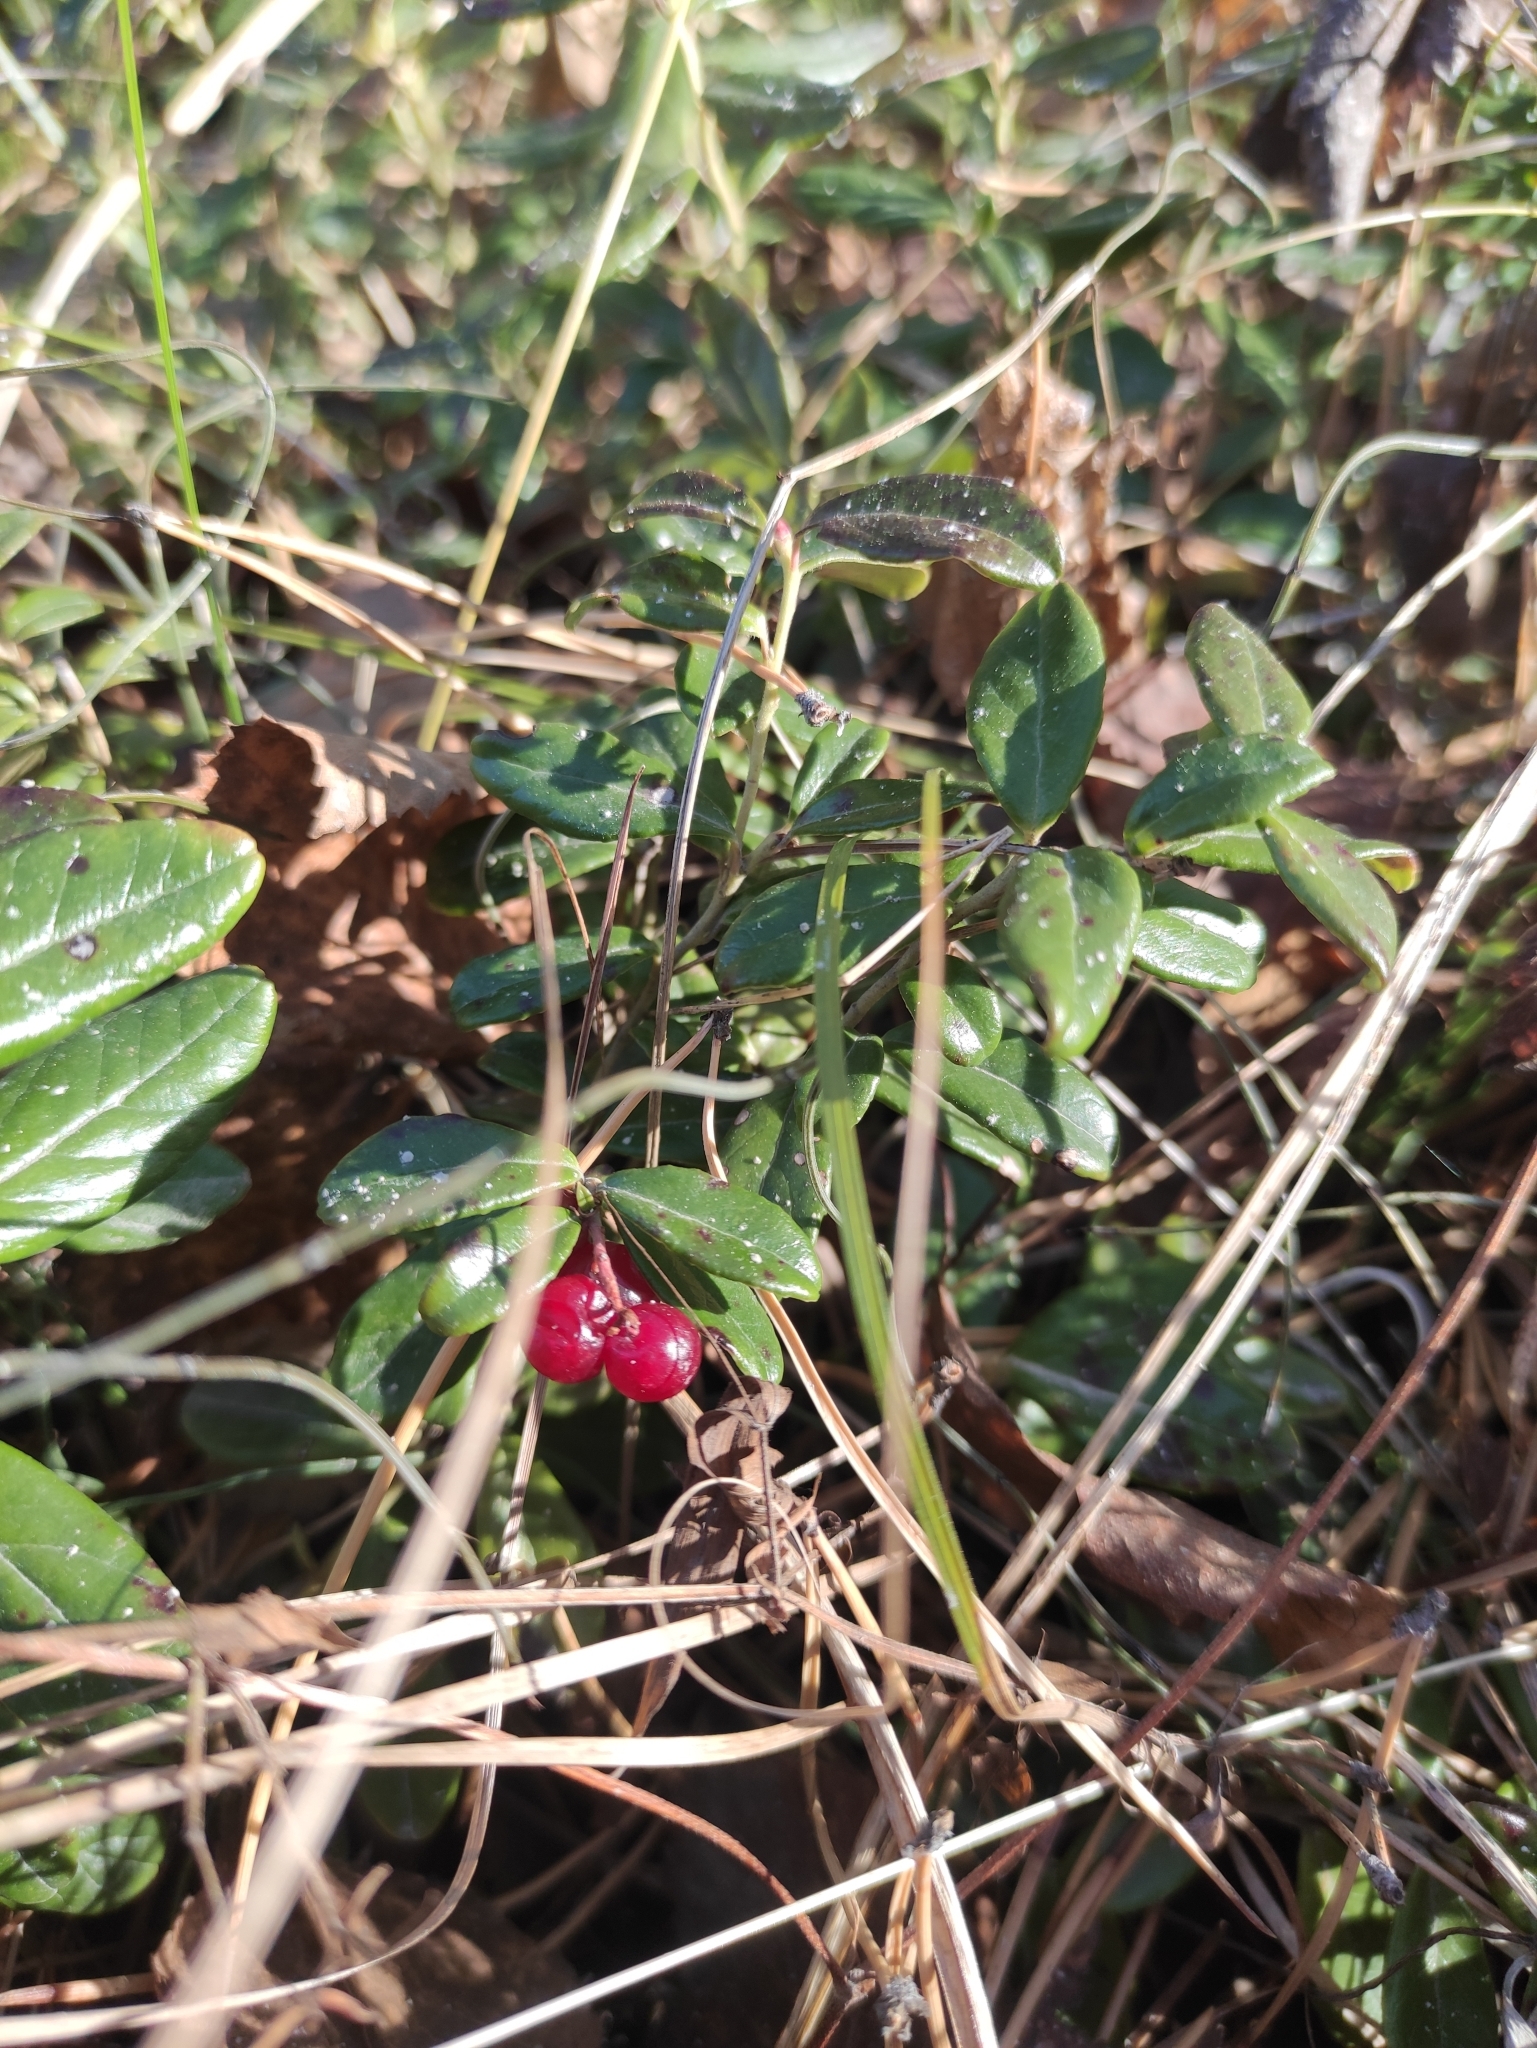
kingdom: Plantae
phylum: Tracheophyta
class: Magnoliopsida
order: Ericales
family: Ericaceae
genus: Vaccinium
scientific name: Vaccinium vitis-idaea
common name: Cowberry
